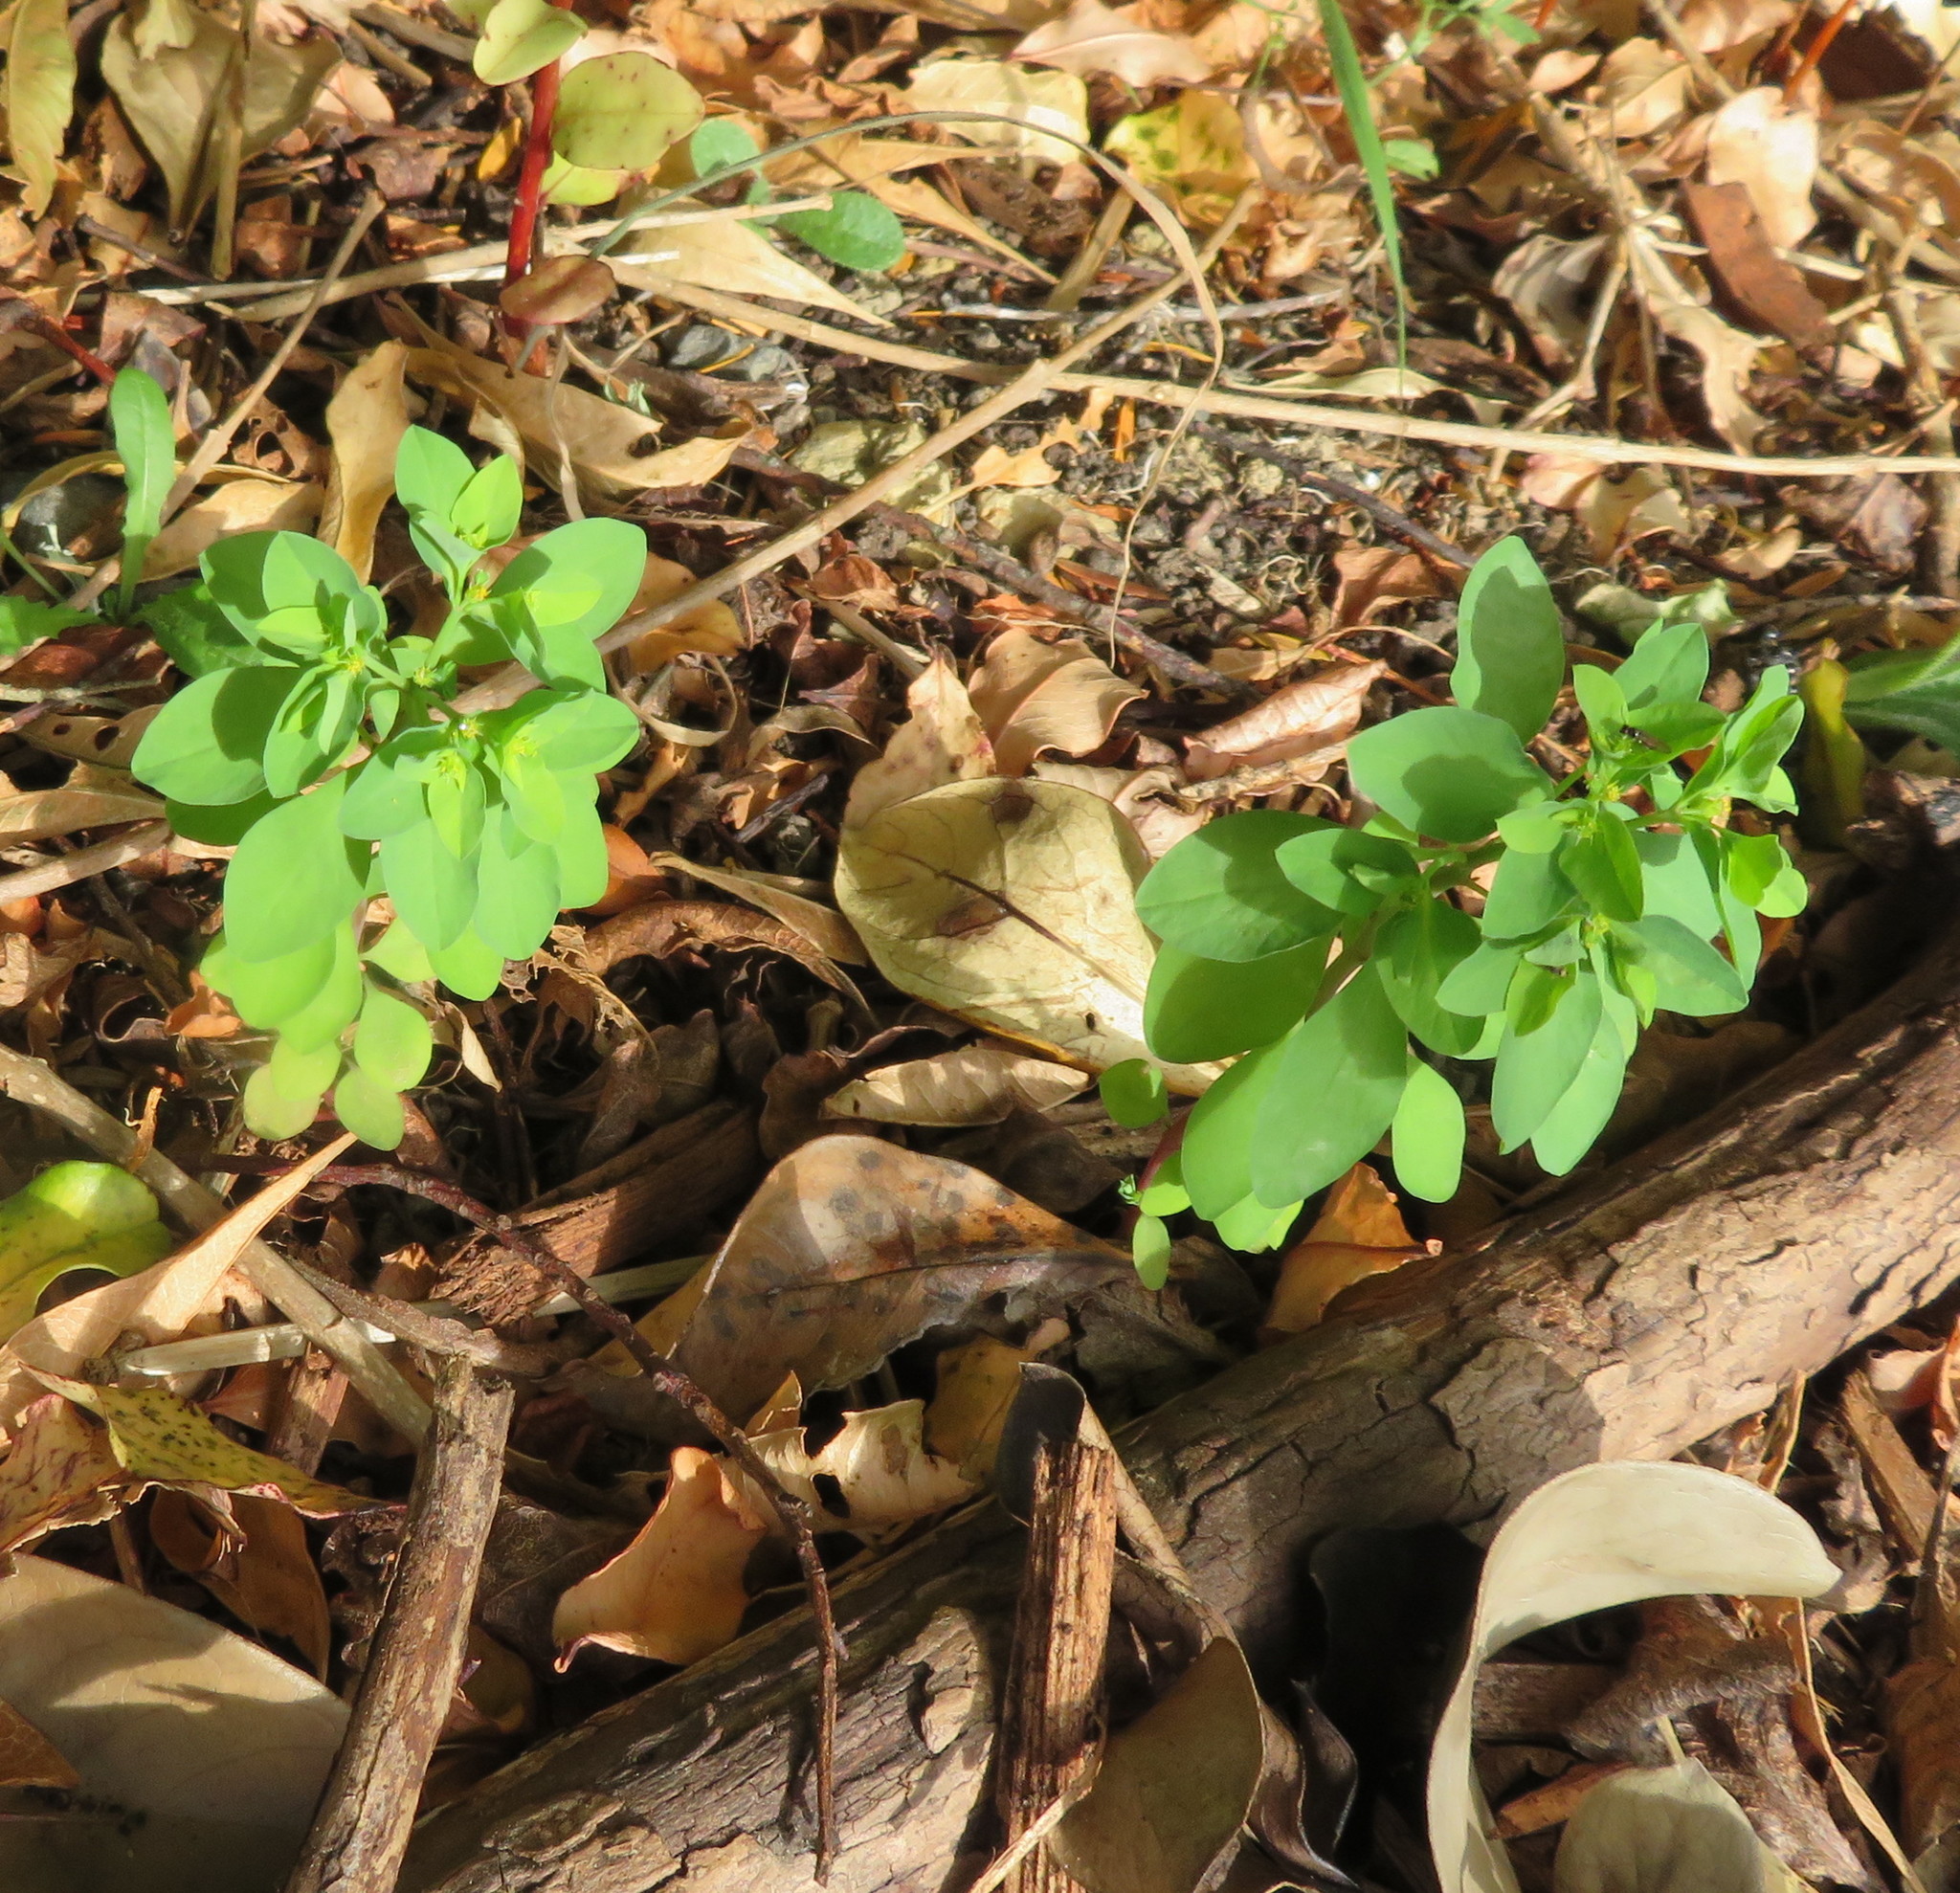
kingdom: Plantae
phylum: Tracheophyta
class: Magnoliopsida
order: Malpighiales
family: Euphorbiaceae
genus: Euphorbia
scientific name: Euphorbia peplus
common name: Petty spurge
